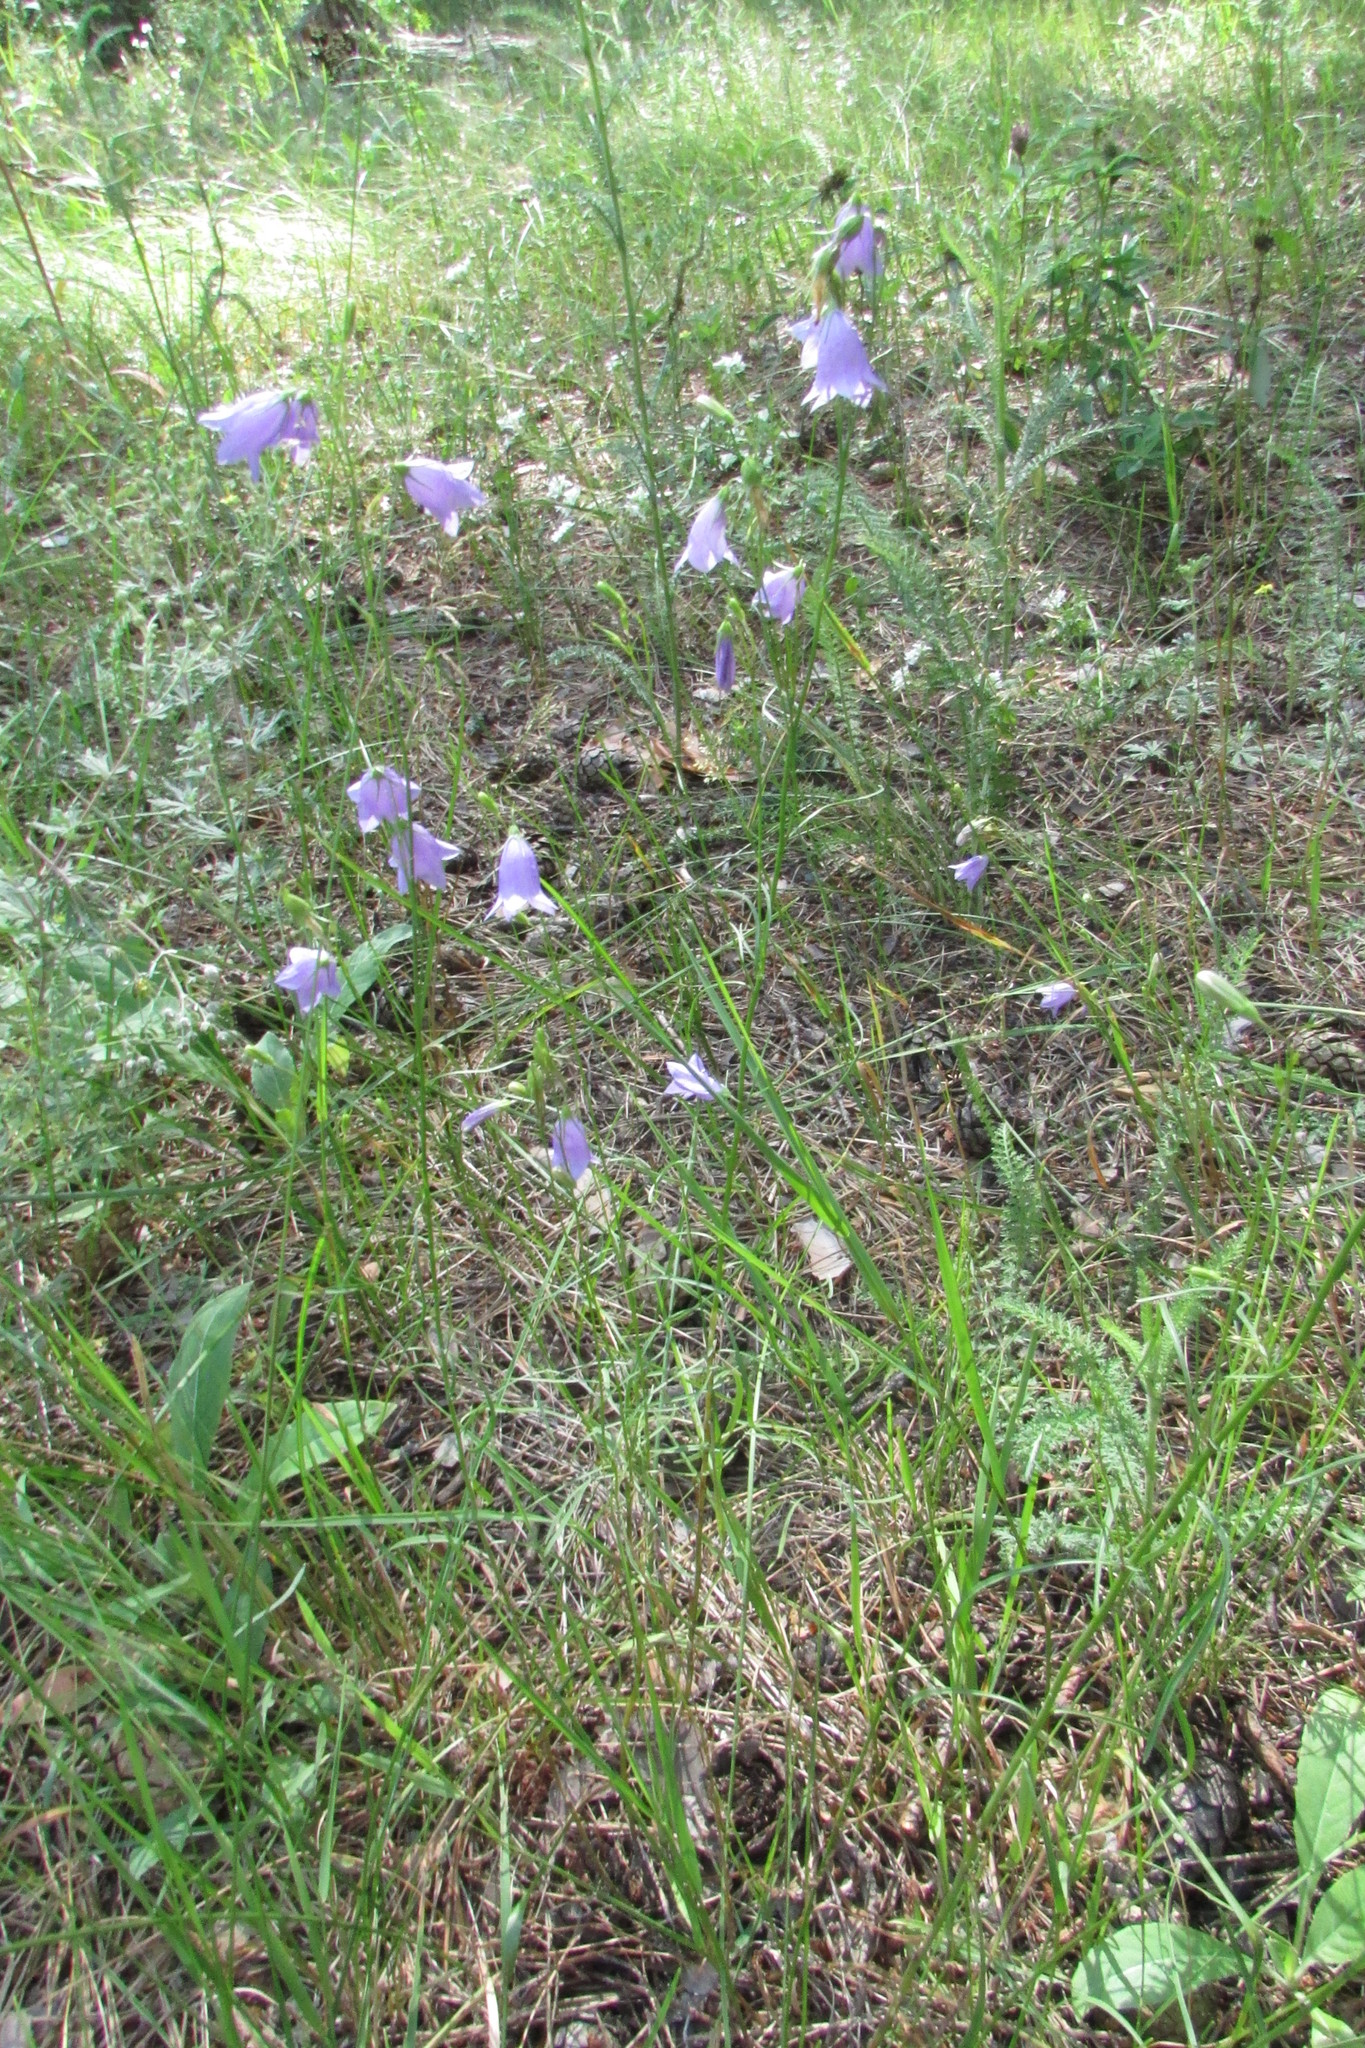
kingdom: Plantae
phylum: Tracheophyta
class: Magnoliopsida
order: Asterales
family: Campanulaceae
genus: Campanula
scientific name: Campanula rotundifolia
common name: Harebell
